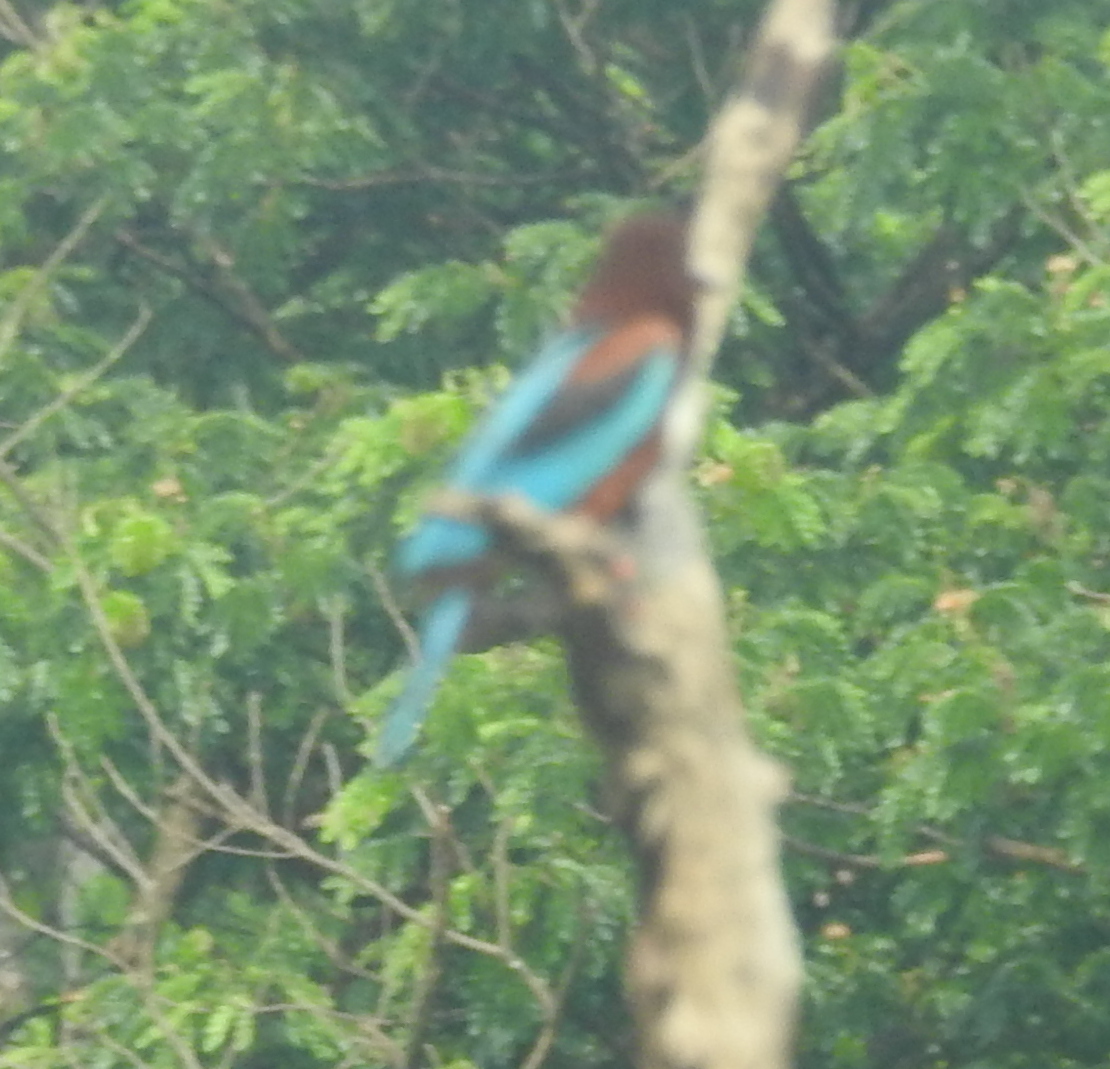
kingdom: Animalia
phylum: Chordata
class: Aves
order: Coraciiformes
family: Alcedinidae
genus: Halcyon
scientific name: Halcyon smyrnensis
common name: White-throated kingfisher
